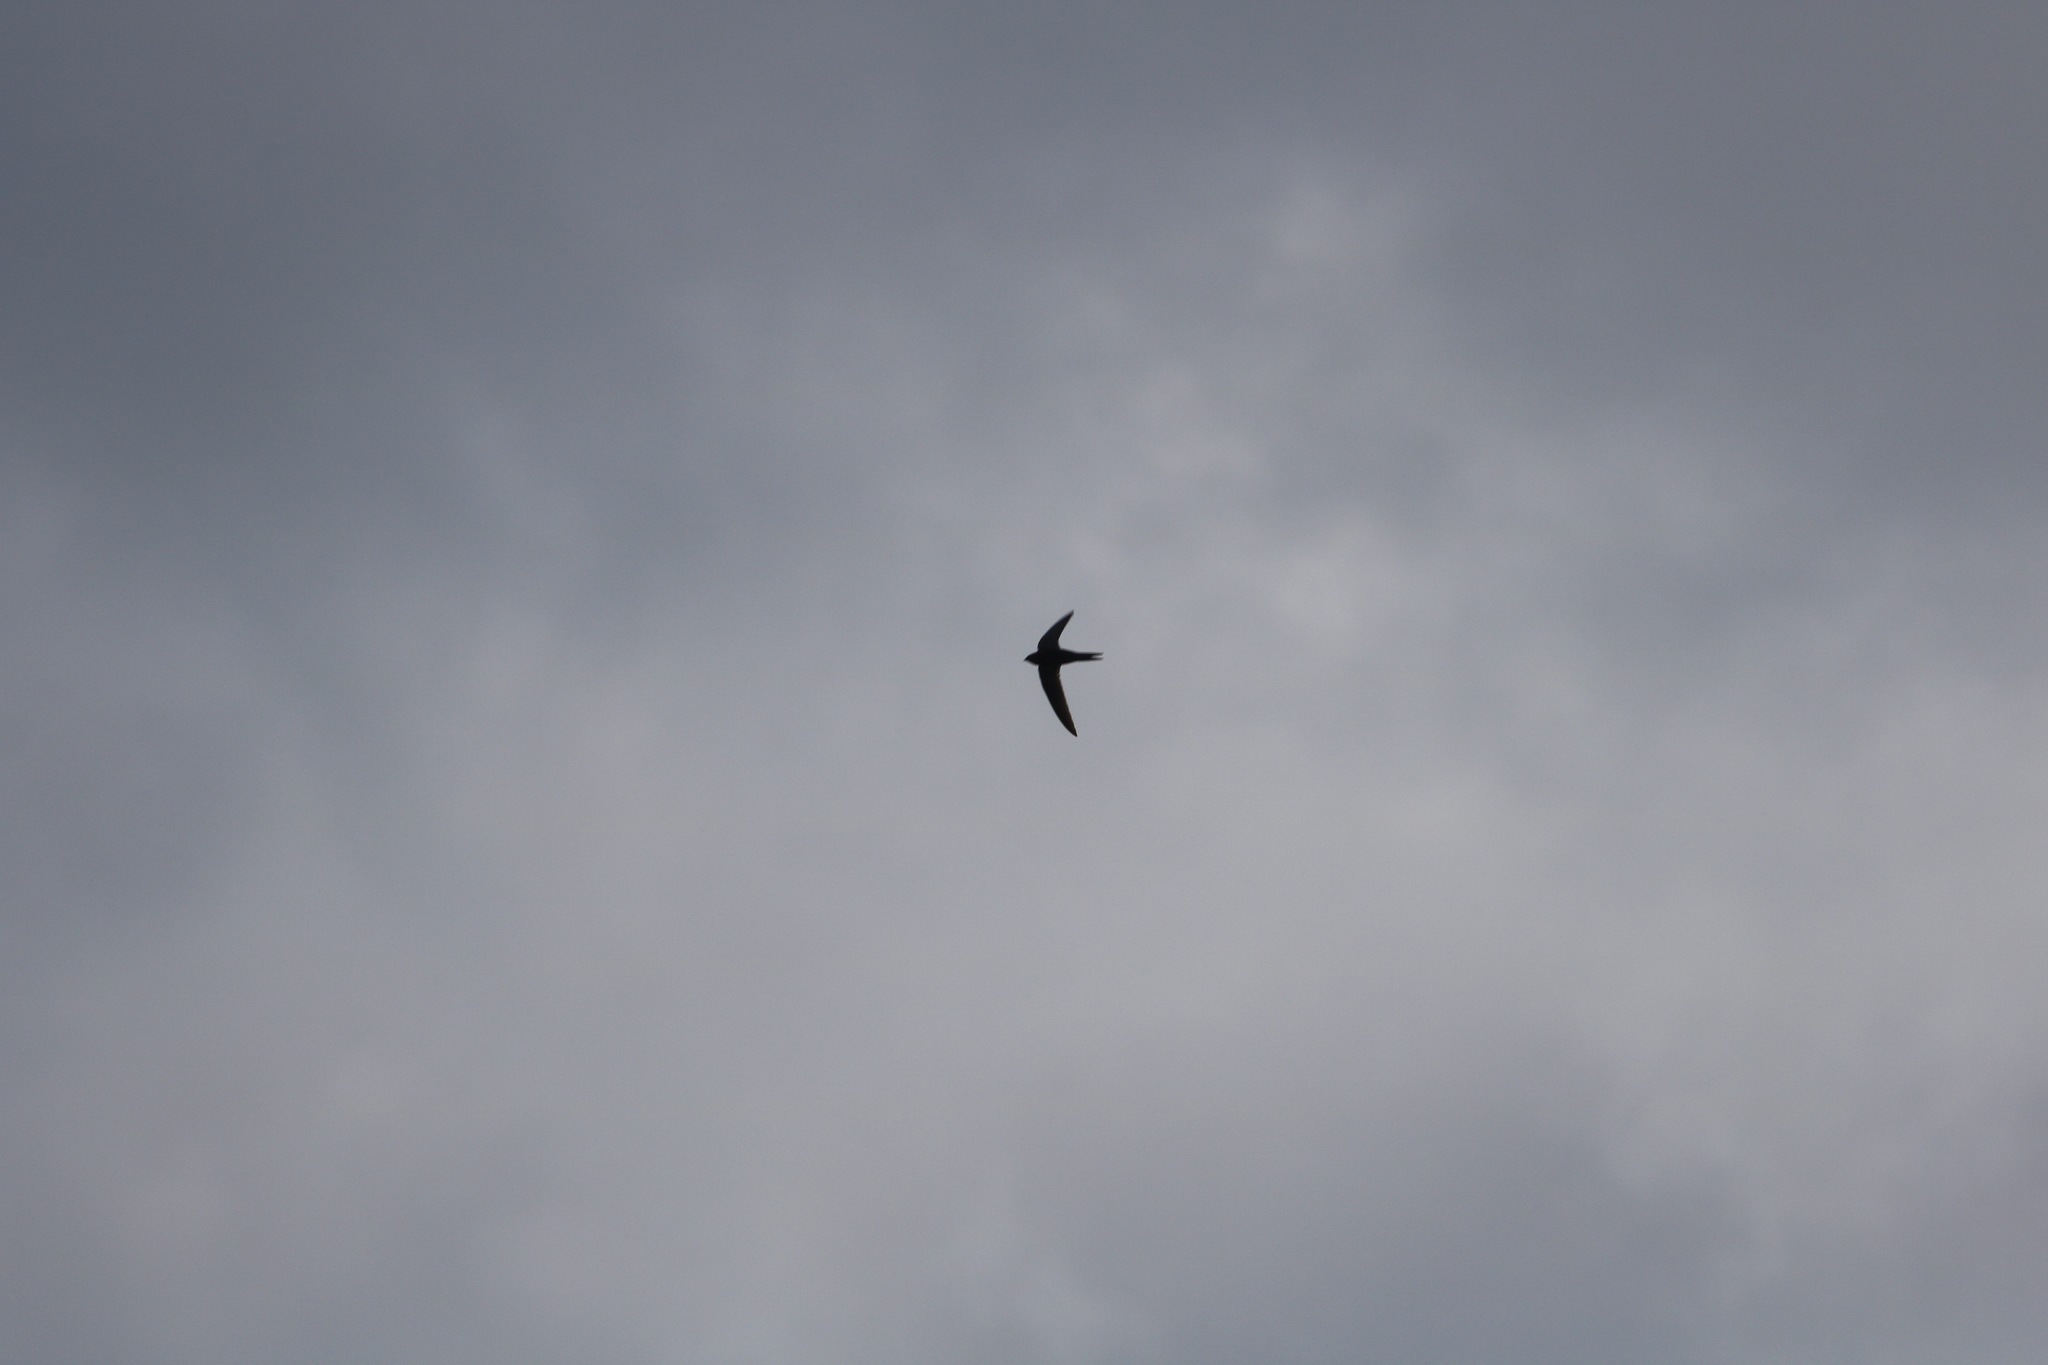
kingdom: Animalia
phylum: Chordata
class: Aves
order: Apodiformes
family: Apodidae
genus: Apus
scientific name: Apus apus
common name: Common swift
